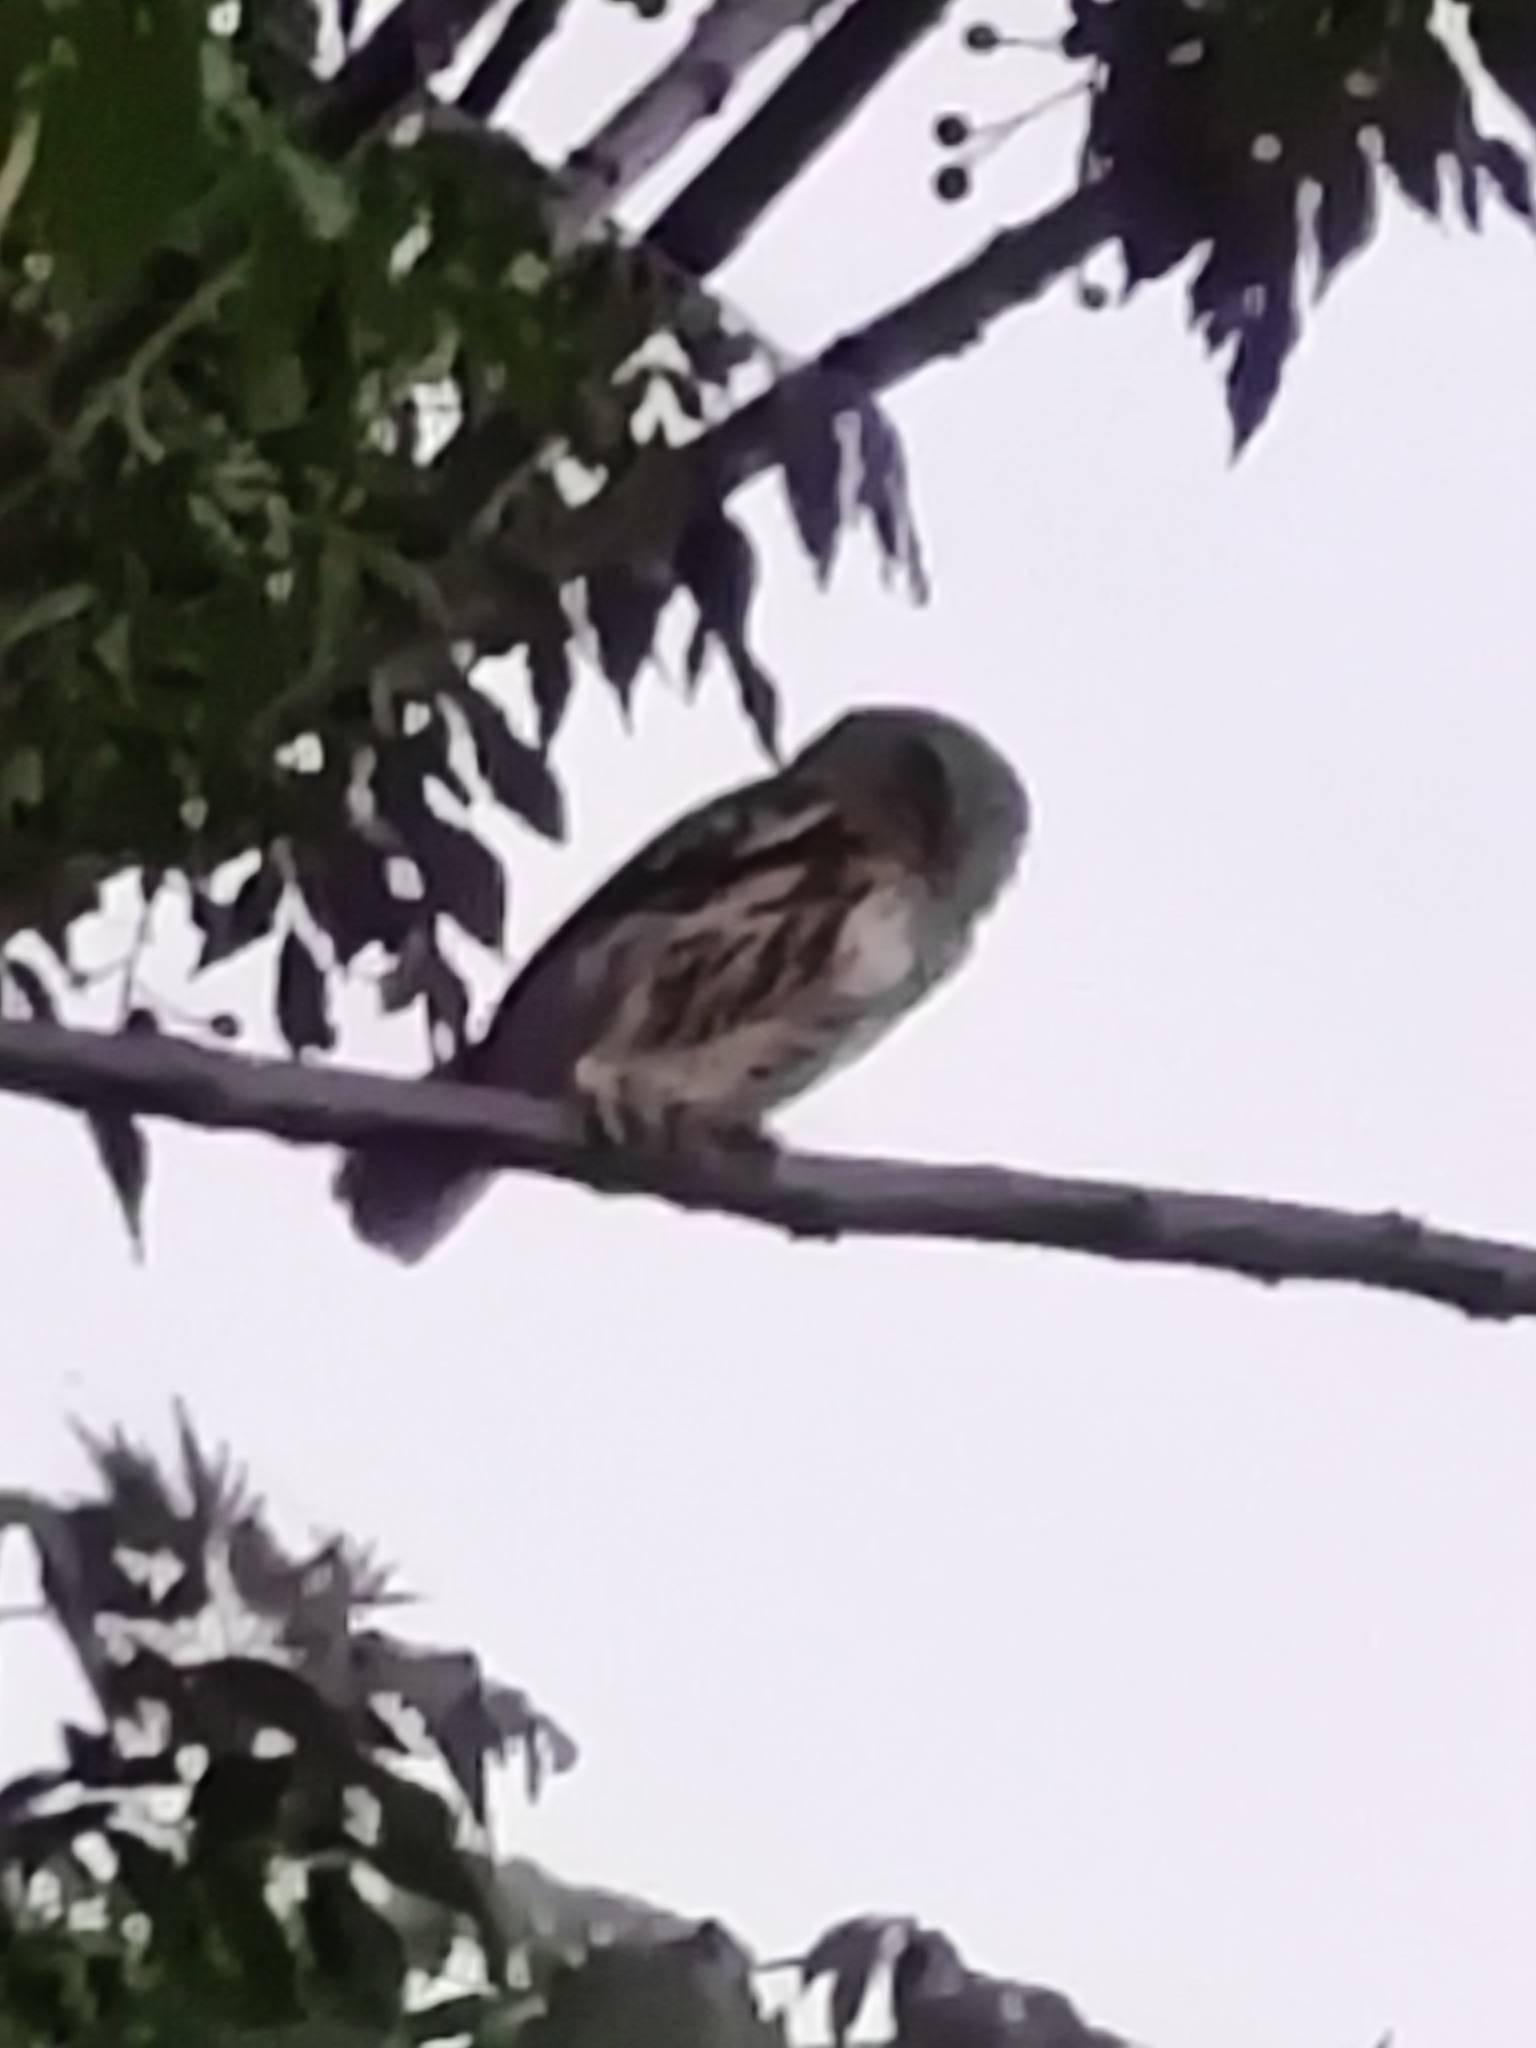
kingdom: Animalia
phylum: Chordata
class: Aves
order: Strigiformes
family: Strigidae
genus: Glaucidium
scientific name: Glaucidium brasilianum
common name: Ferruginous pygmy-owl
